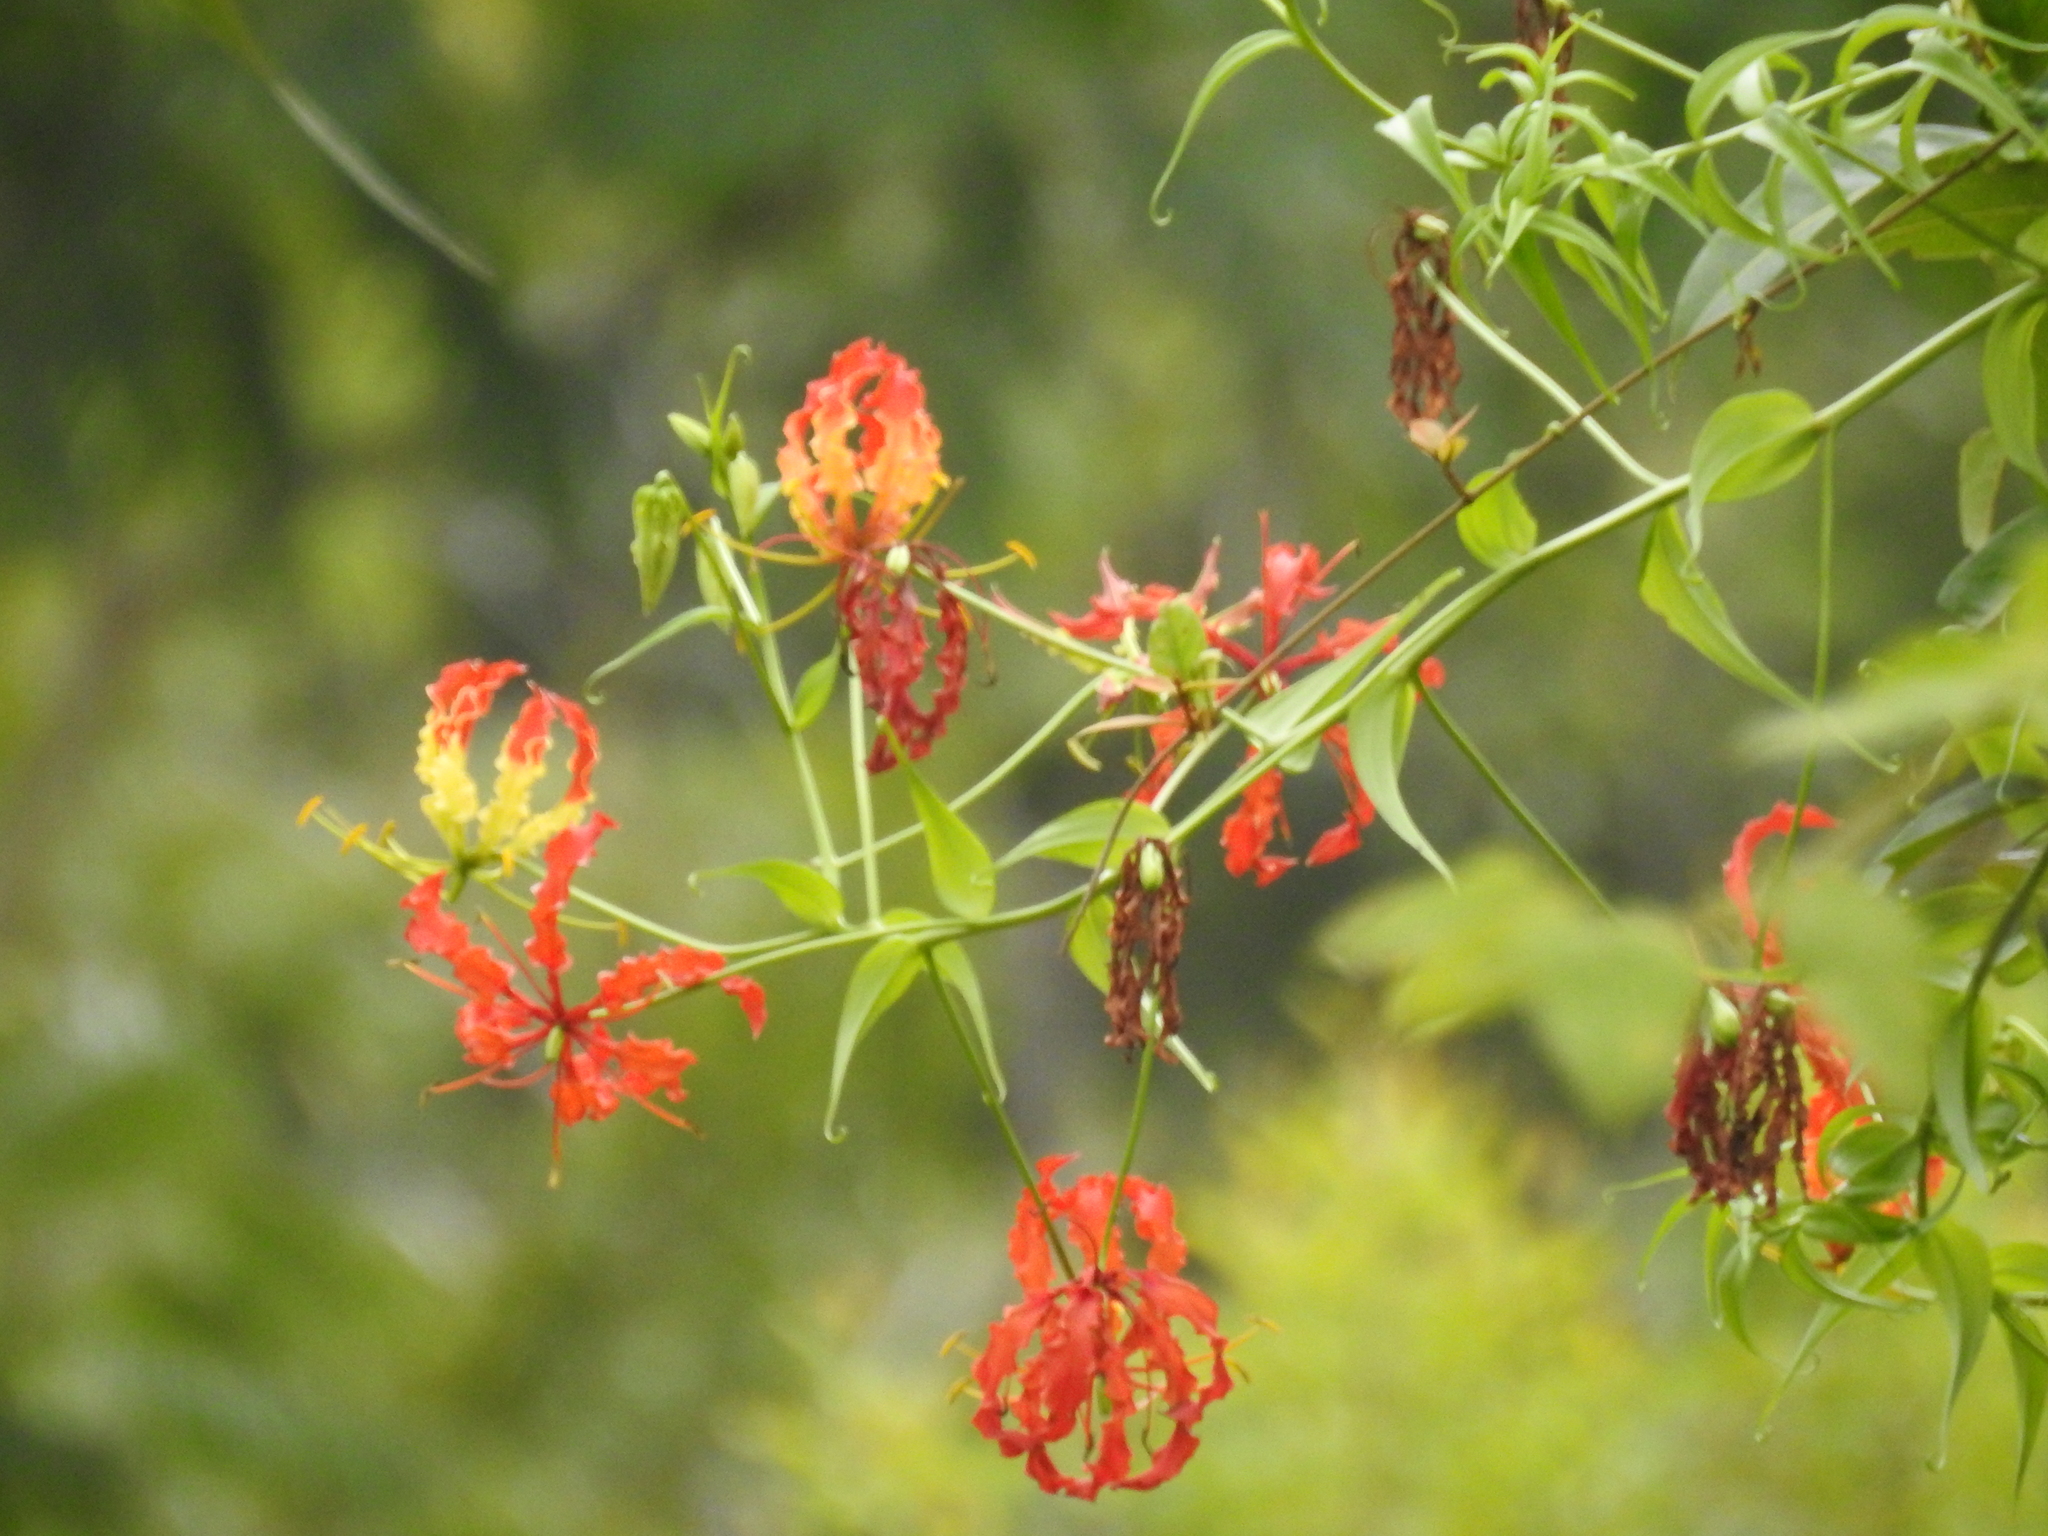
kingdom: Plantae
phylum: Tracheophyta
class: Liliopsida
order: Liliales
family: Colchicaceae
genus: Gloriosa
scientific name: Gloriosa superba
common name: Flame lily
